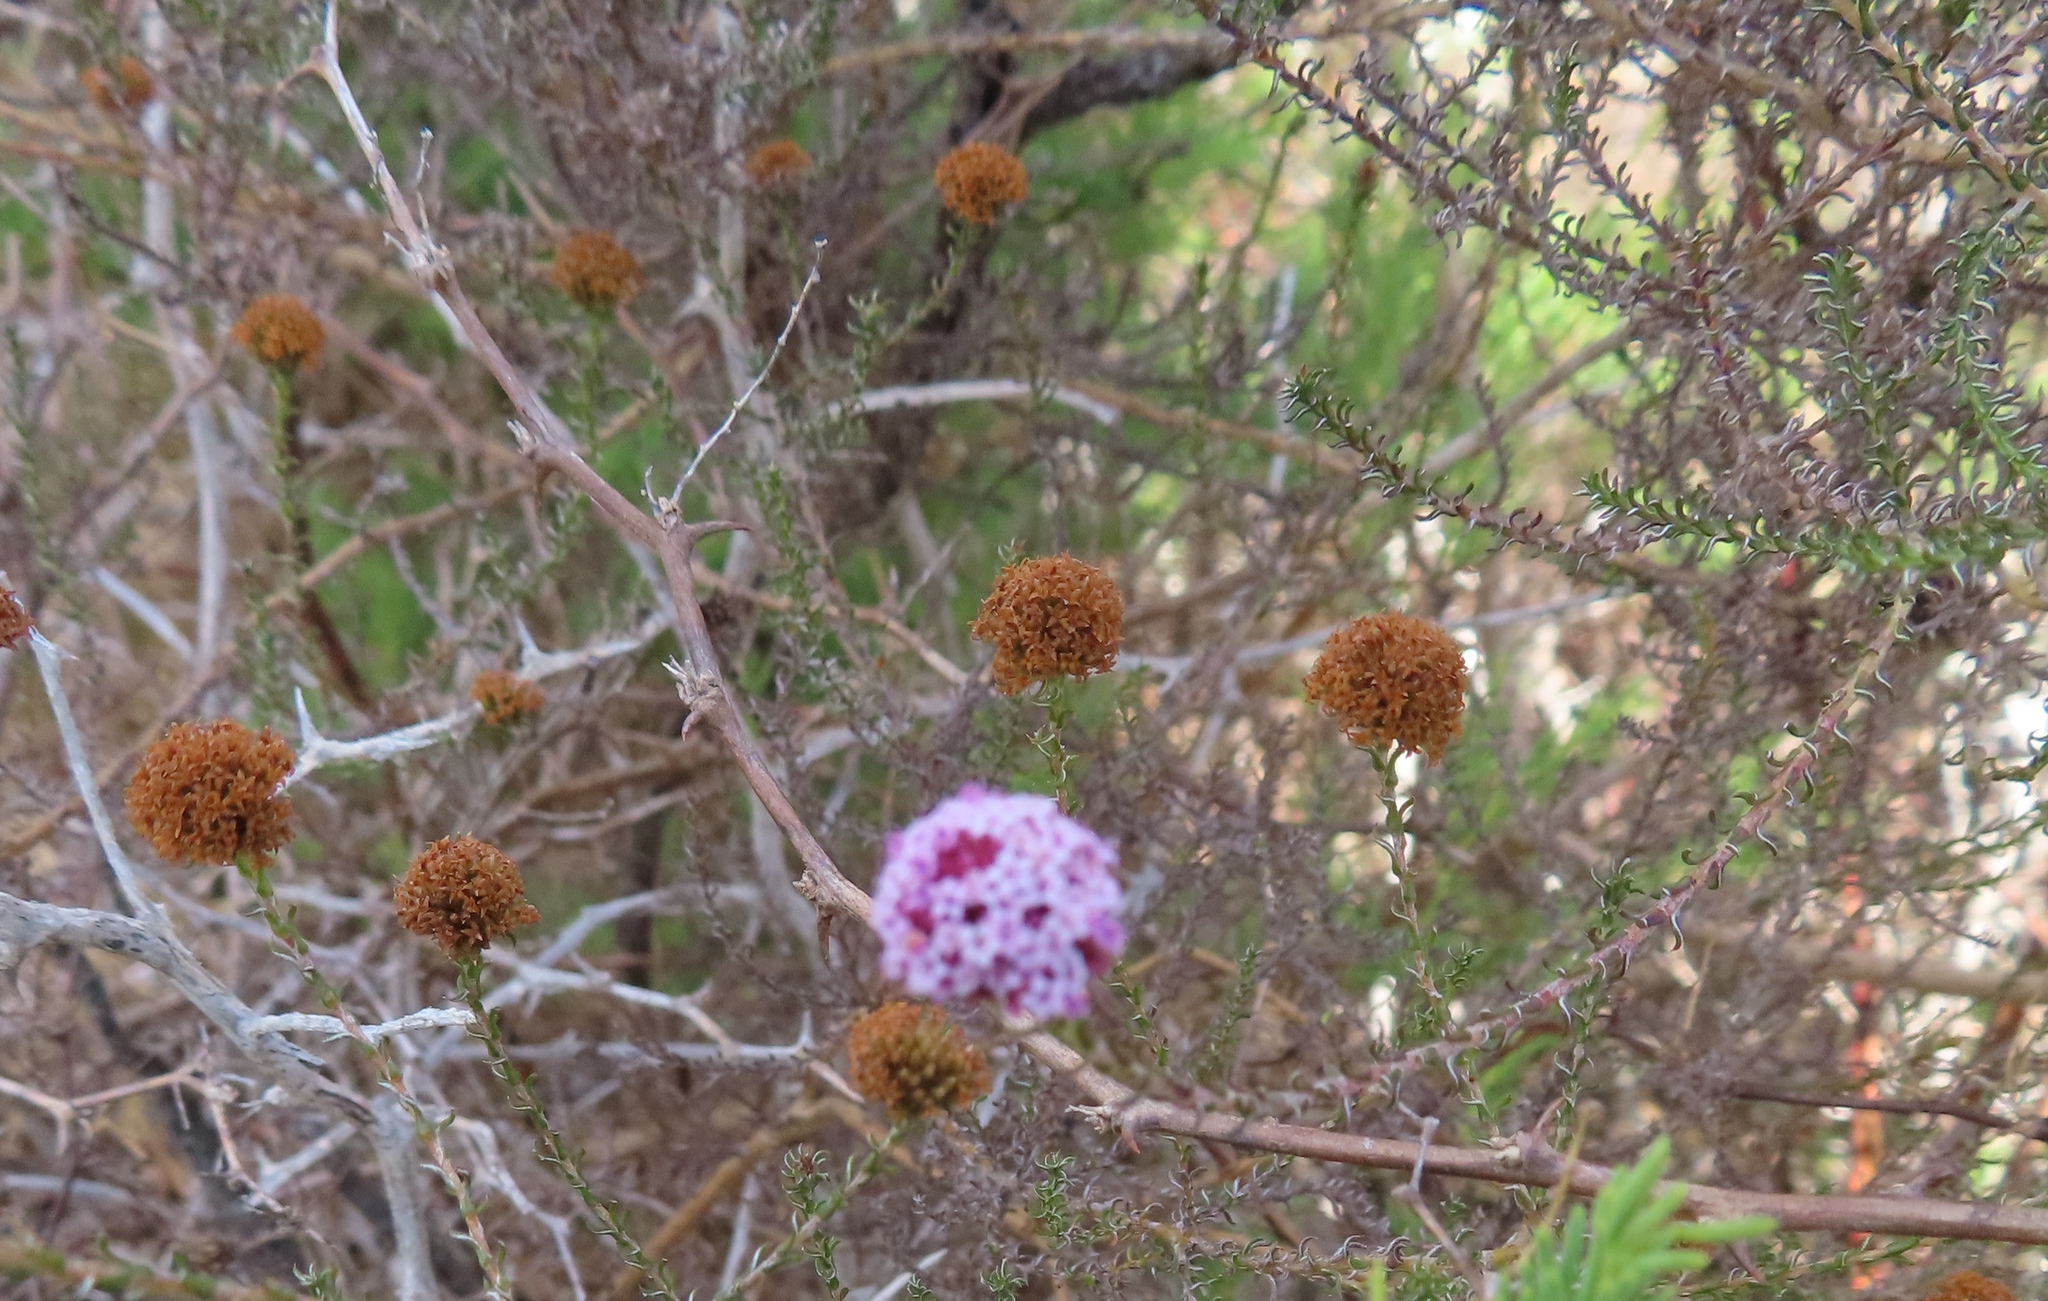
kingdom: Plantae
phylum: Tracheophyta
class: Magnoliopsida
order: Asterales
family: Asteraceae
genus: Stoebe
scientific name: Stoebe capitata
